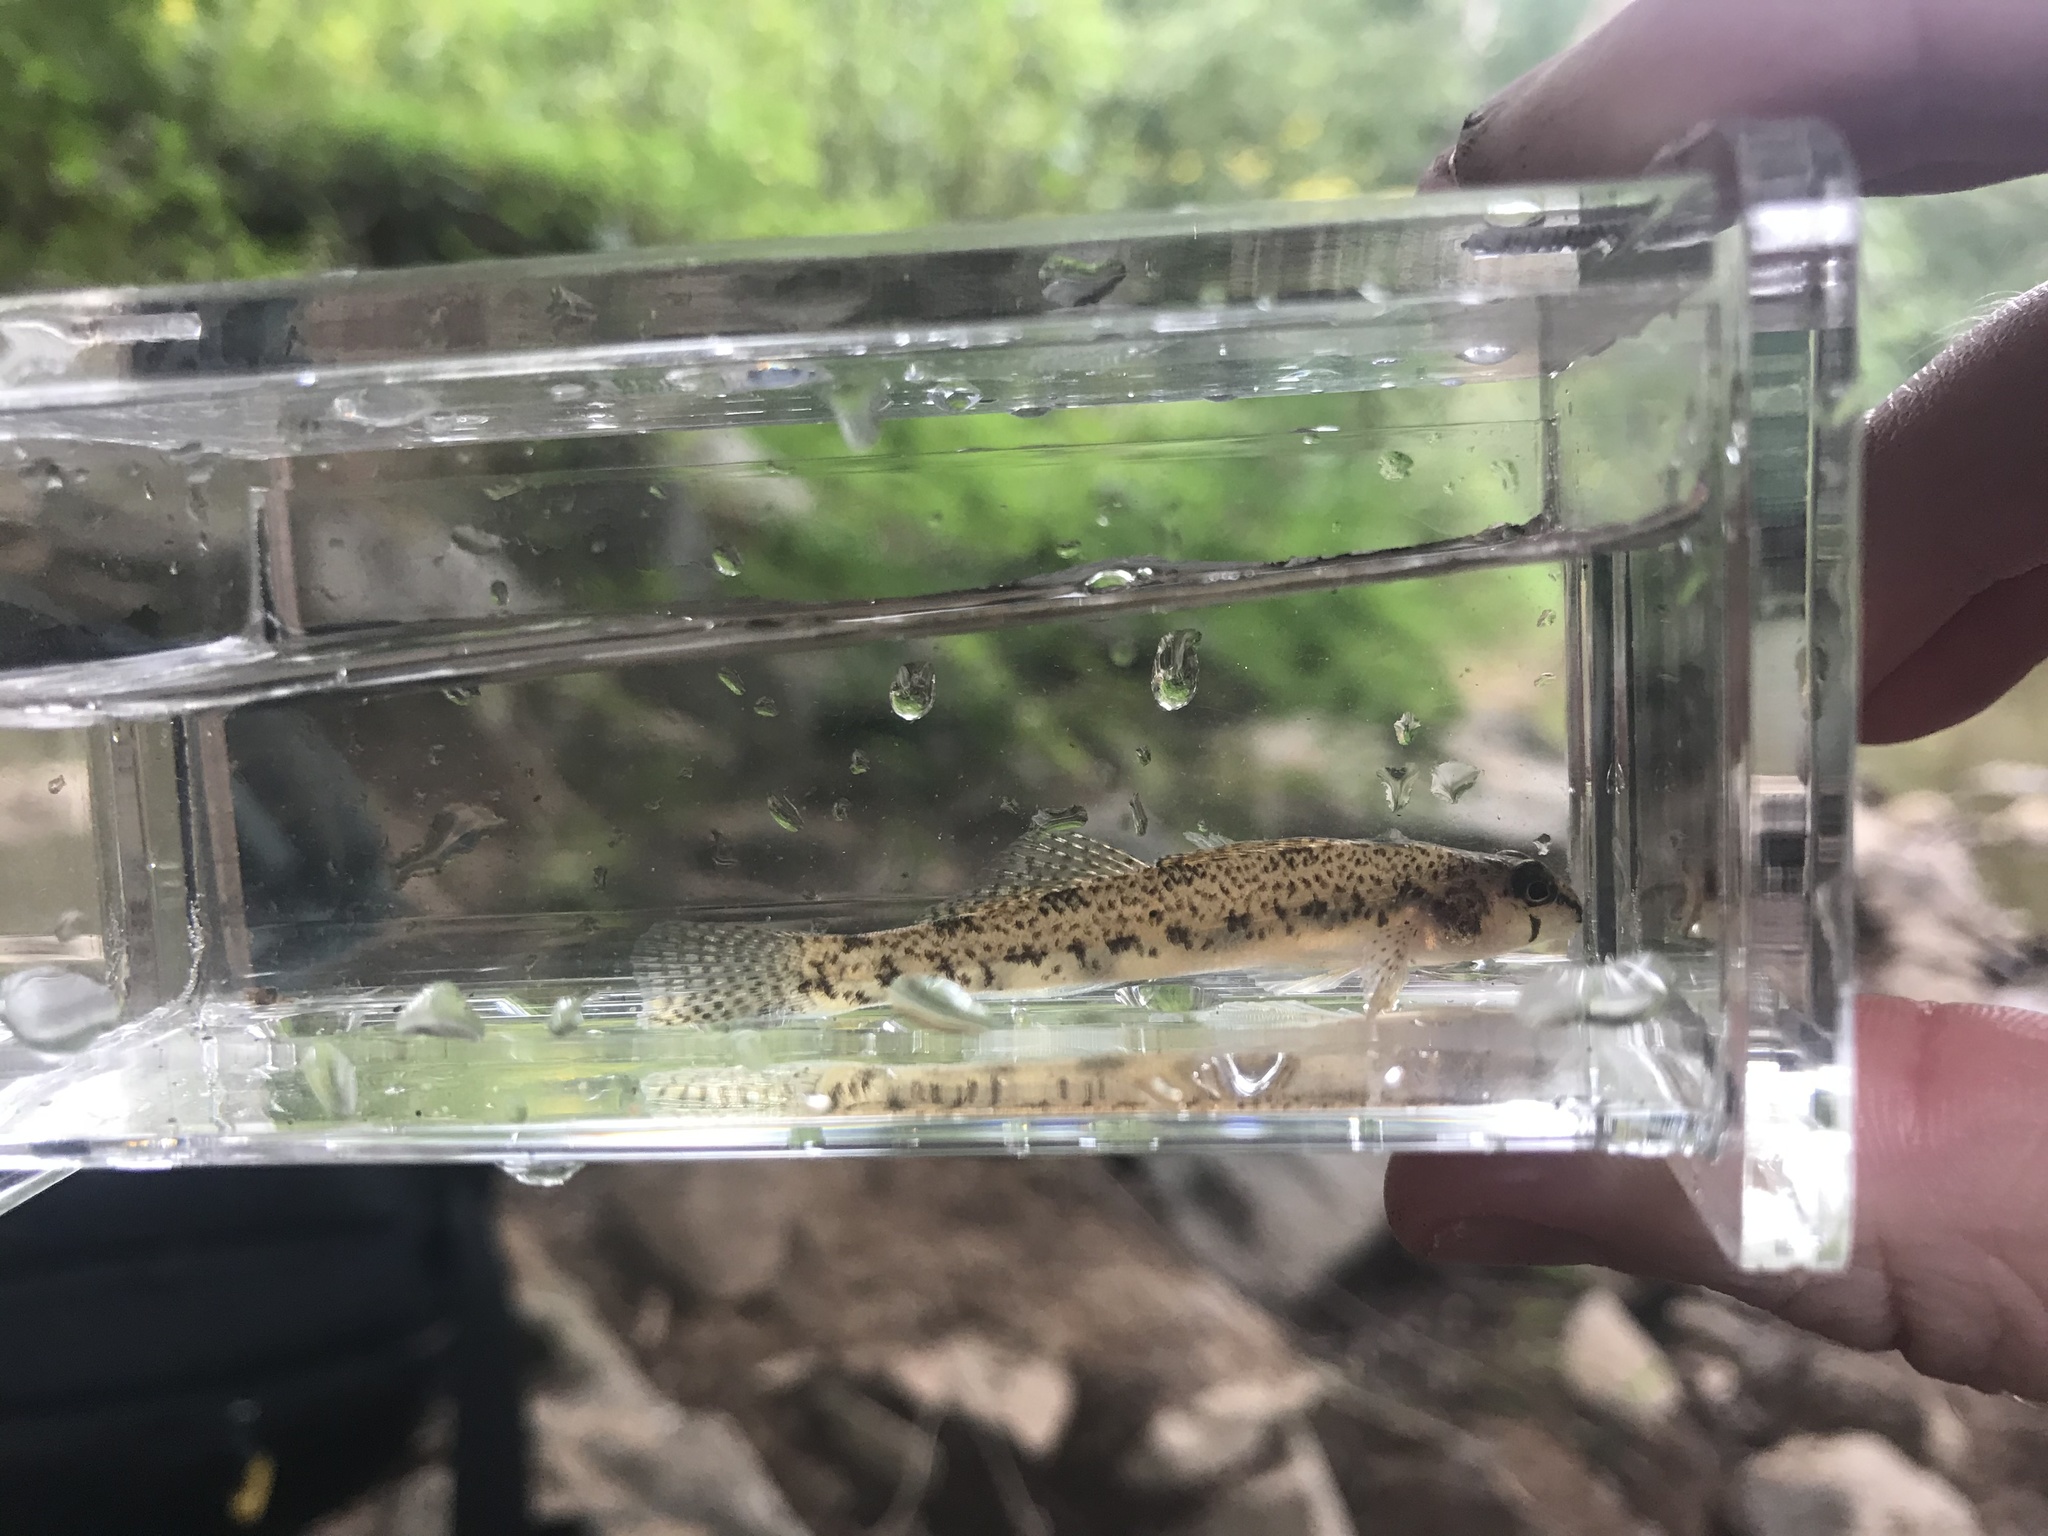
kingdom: Animalia
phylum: Chordata
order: Perciformes
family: Percidae
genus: Etheostoma
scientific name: Etheostoma olmstedi
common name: Tessellated darter
